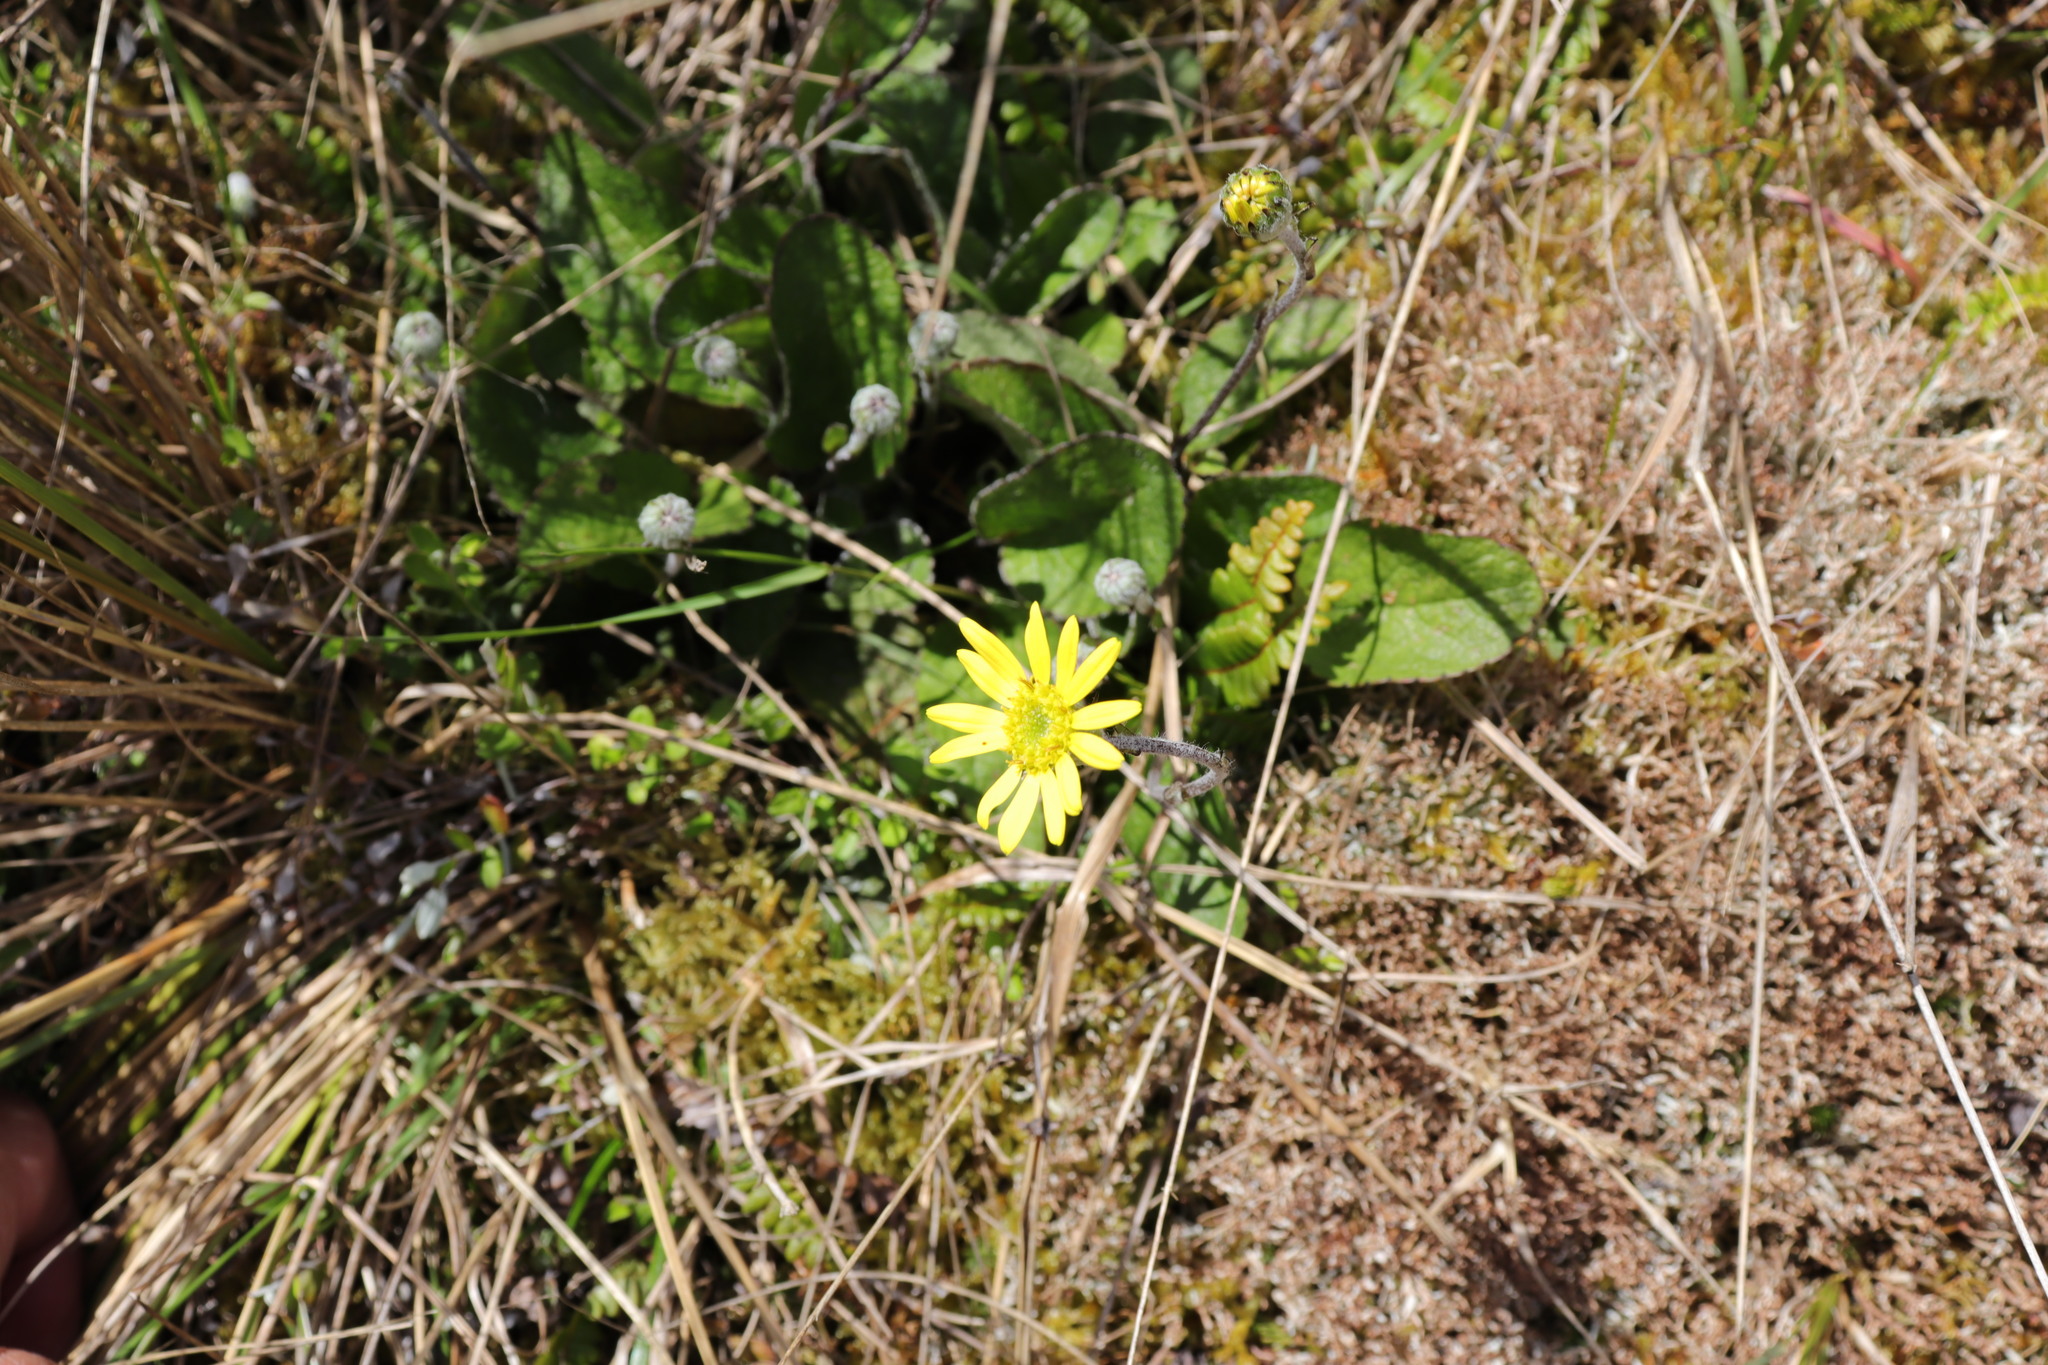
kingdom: Plantae
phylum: Tracheophyta
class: Magnoliopsida
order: Asterales
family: Asteraceae
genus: Brachyglottis
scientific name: Brachyglottis bellidioides
